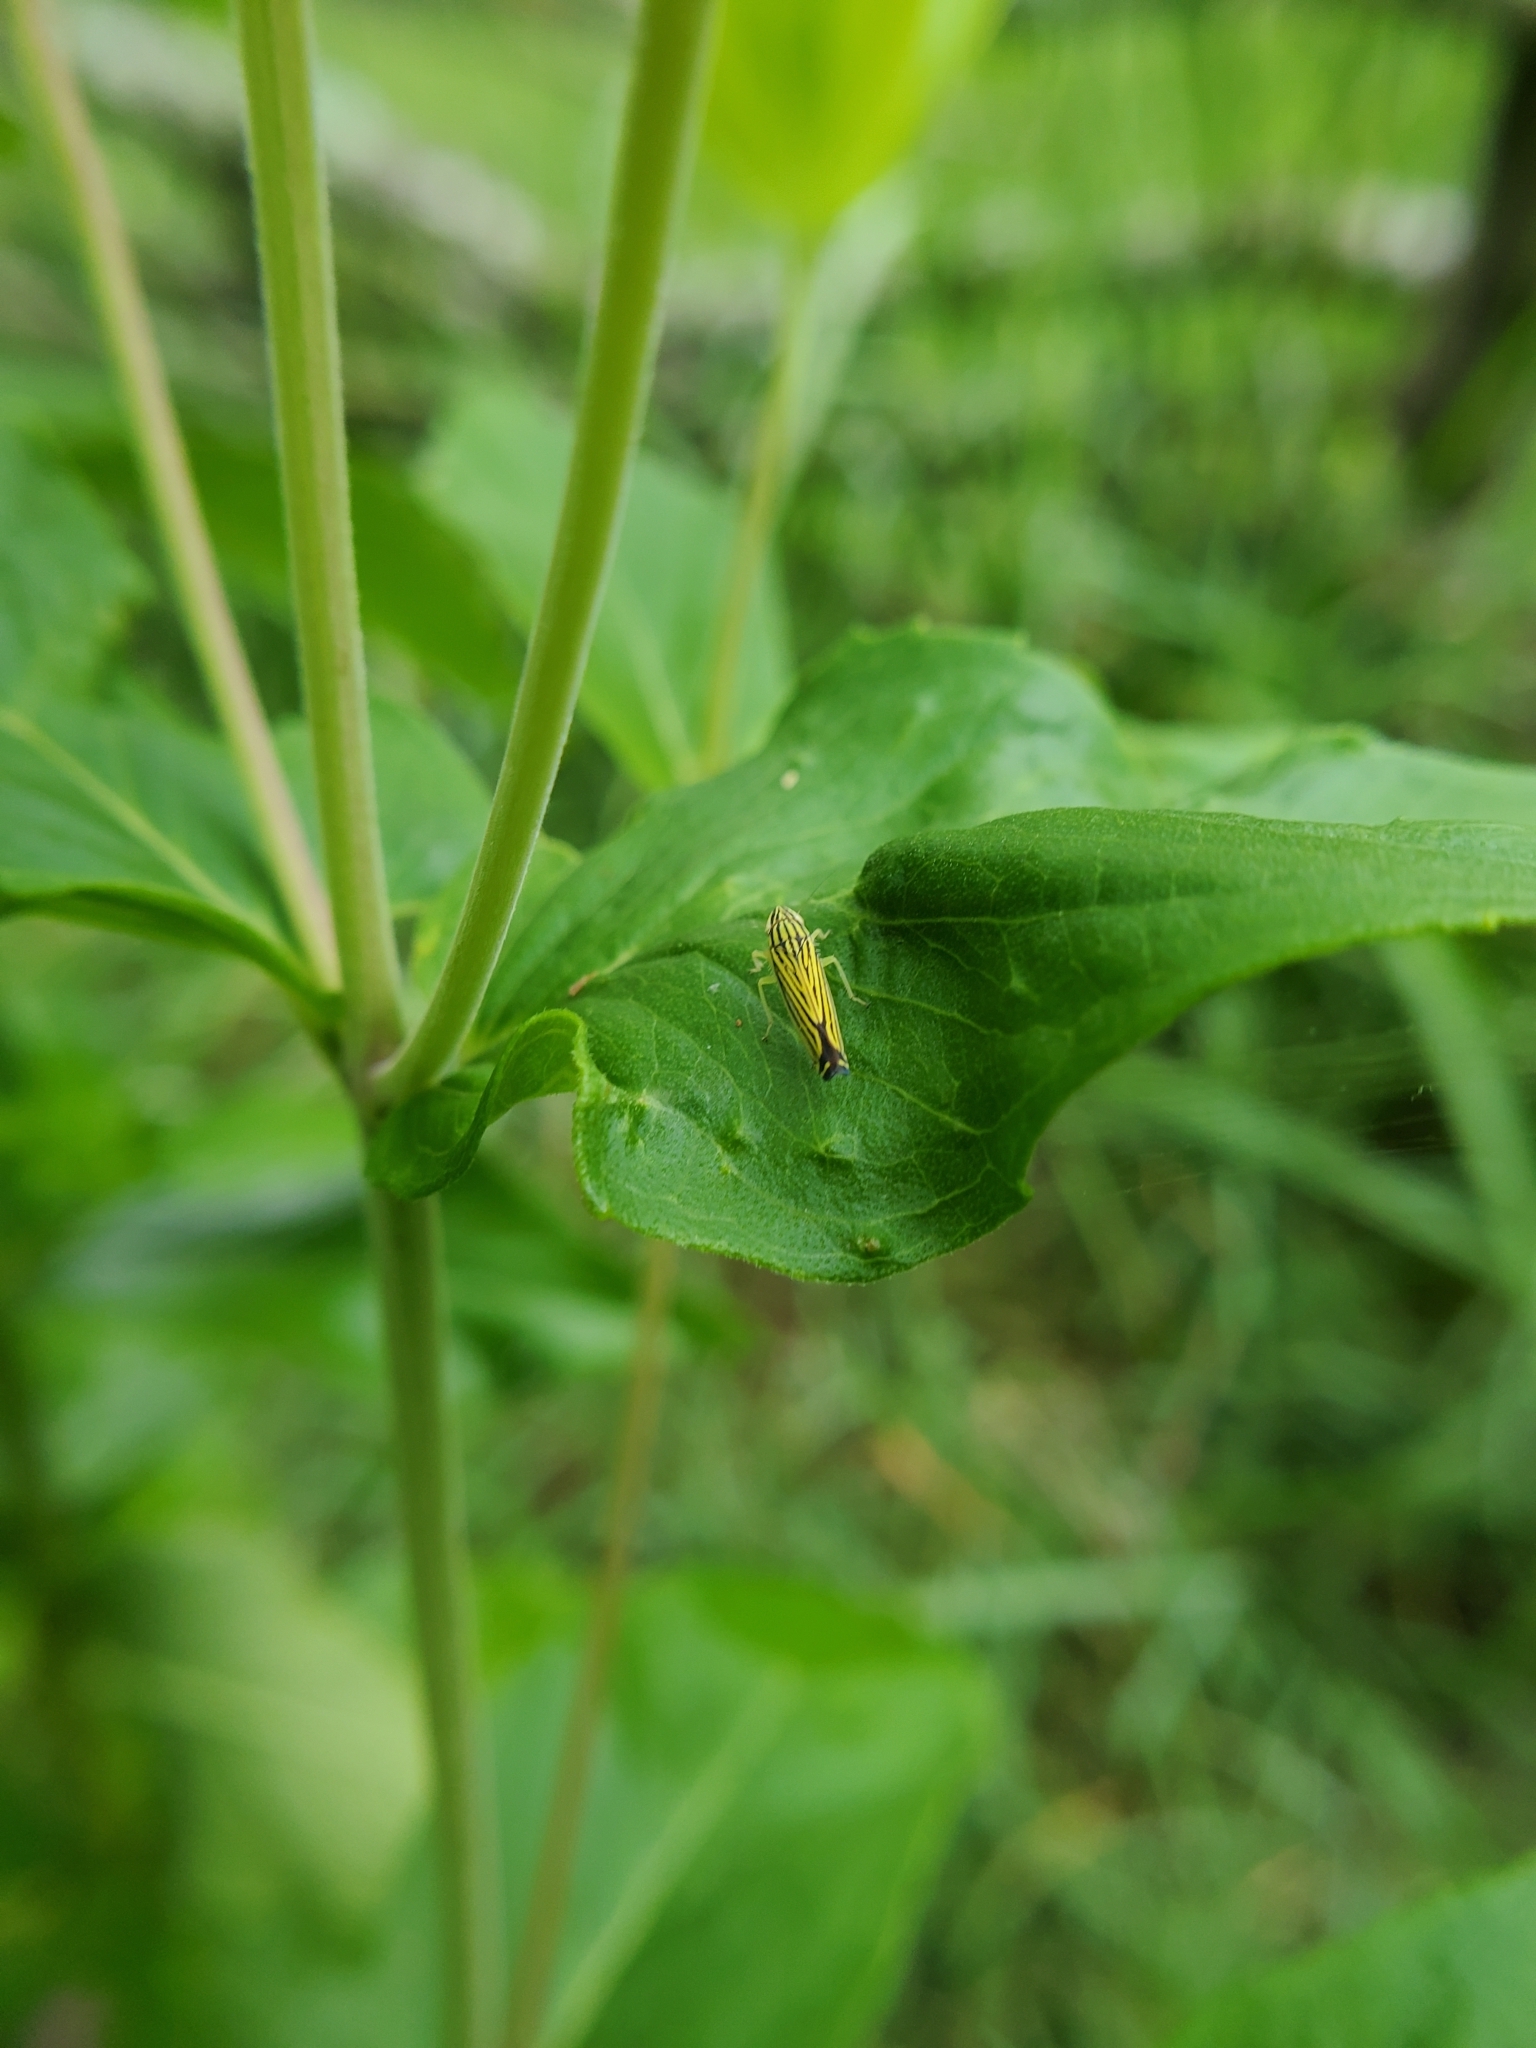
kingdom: Animalia
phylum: Arthropoda
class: Insecta
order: Hemiptera
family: Cicadellidae
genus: Sibovia
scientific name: Sibovia occatoria
